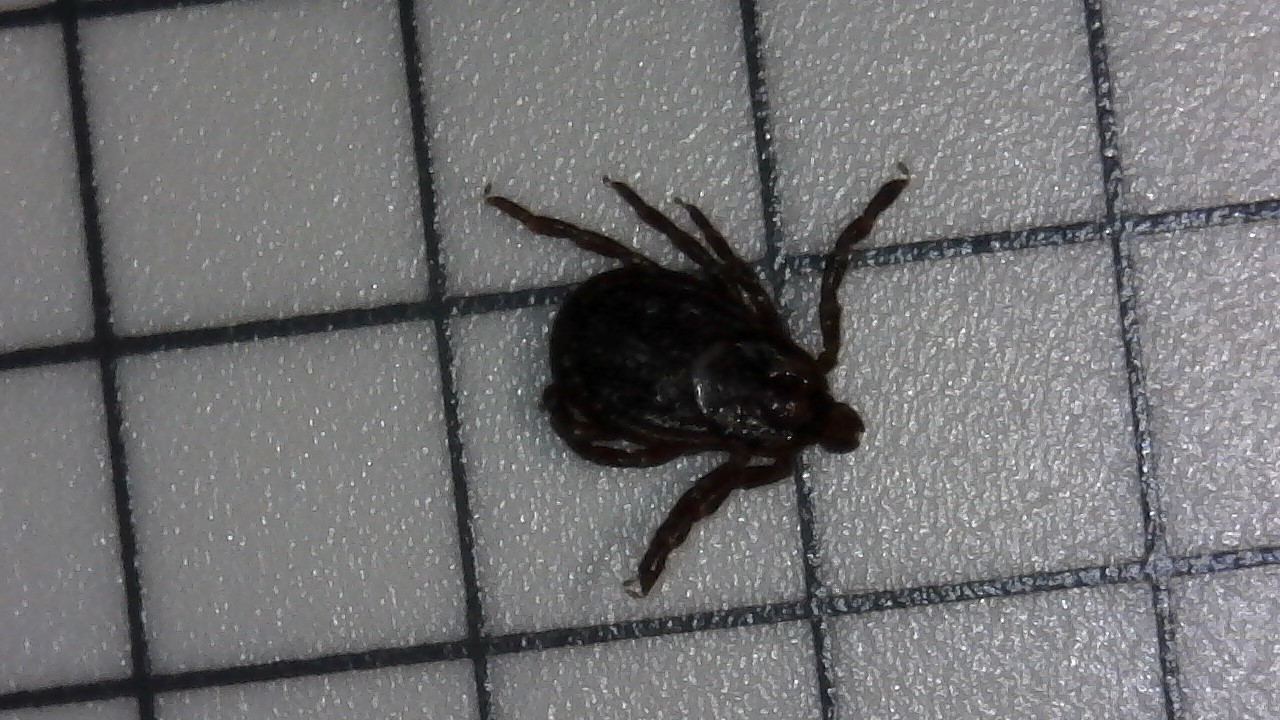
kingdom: Animalia
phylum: Arthropoda
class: Arachnida
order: Ixodida
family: Ixodidae
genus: Dermacentor
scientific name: Dermacentor variabilis
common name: American dog tick
